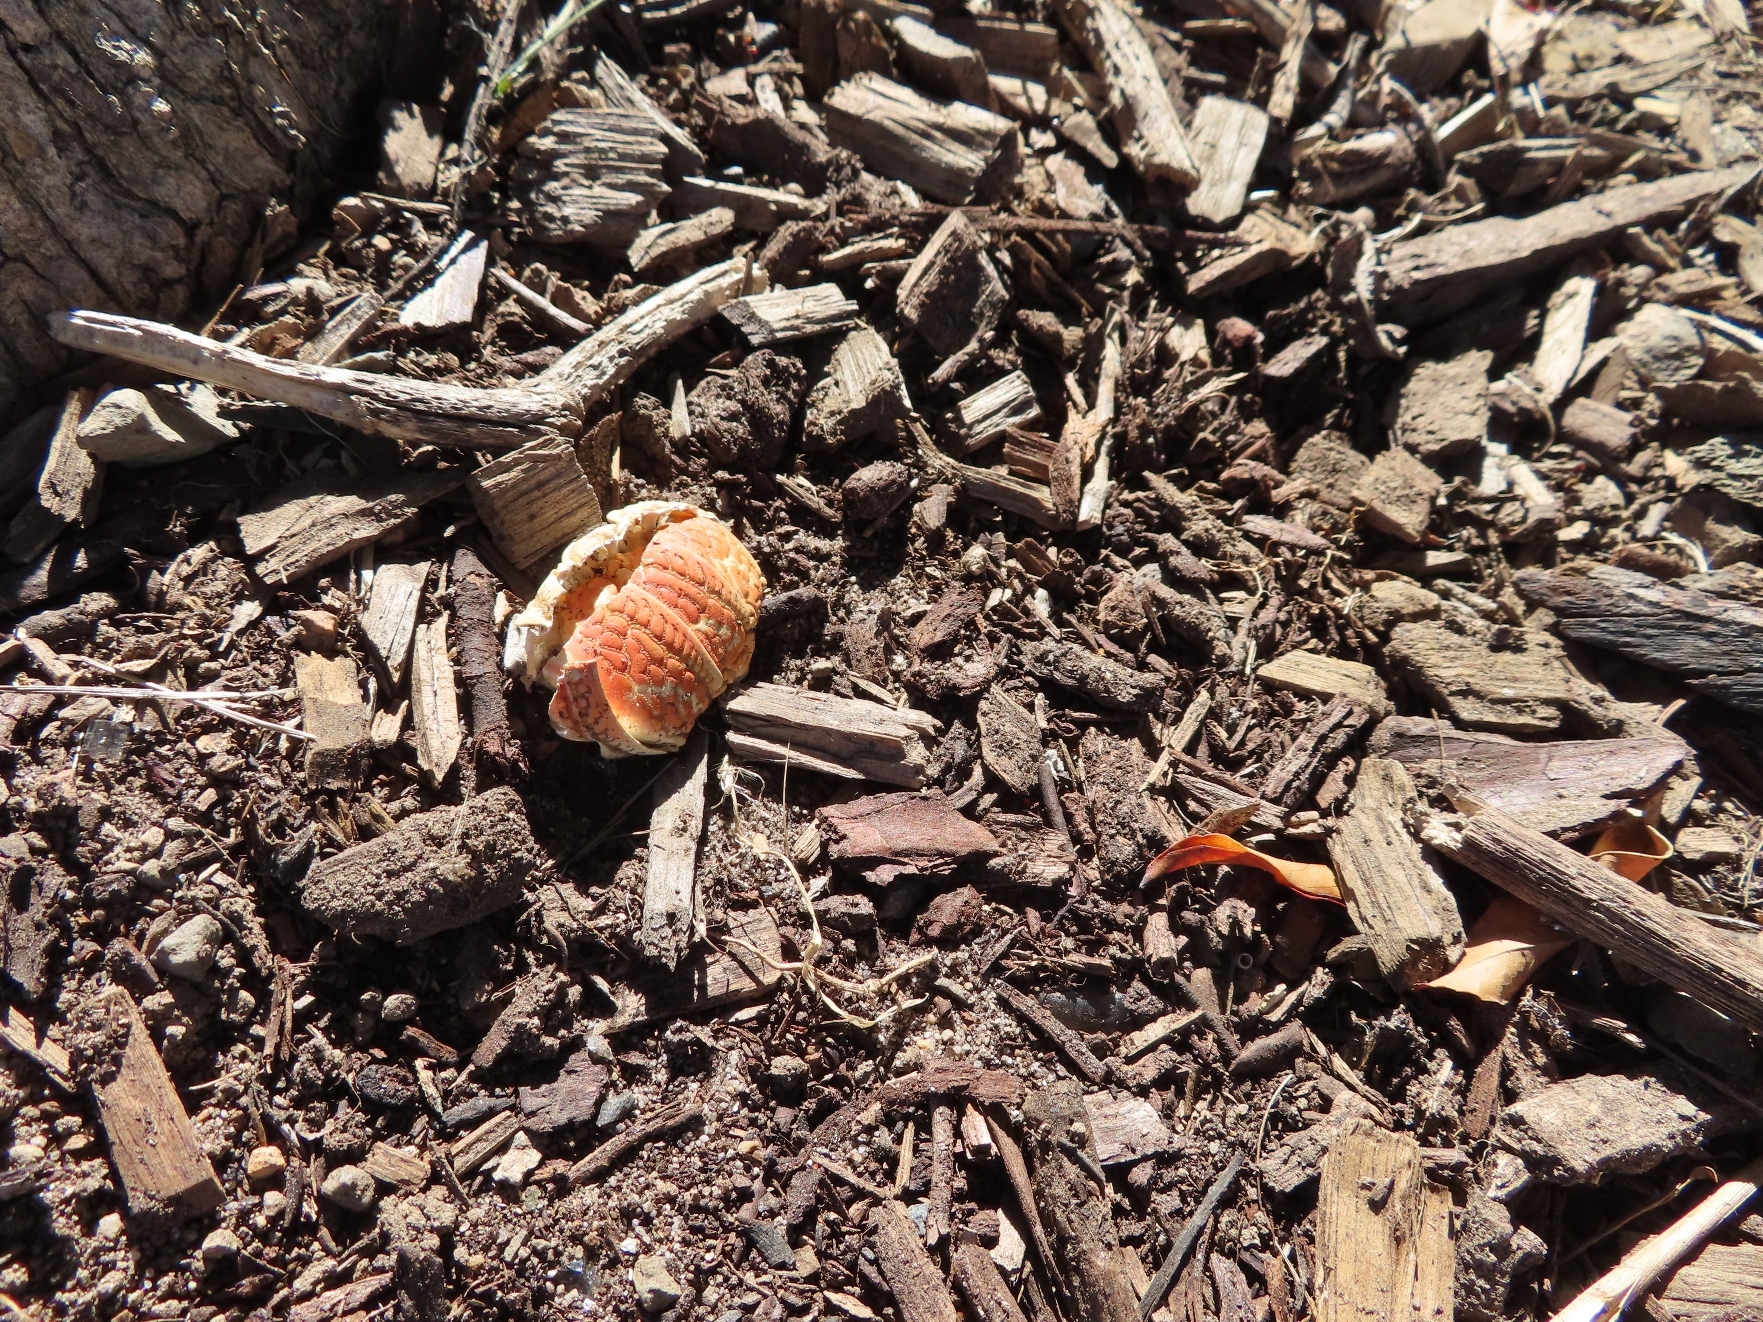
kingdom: Animalia
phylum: Arthropoda
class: Malacostraca
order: Decapoda
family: Palinuridae
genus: Jasus
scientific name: Jasus lalandii
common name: Cape rock lobster
